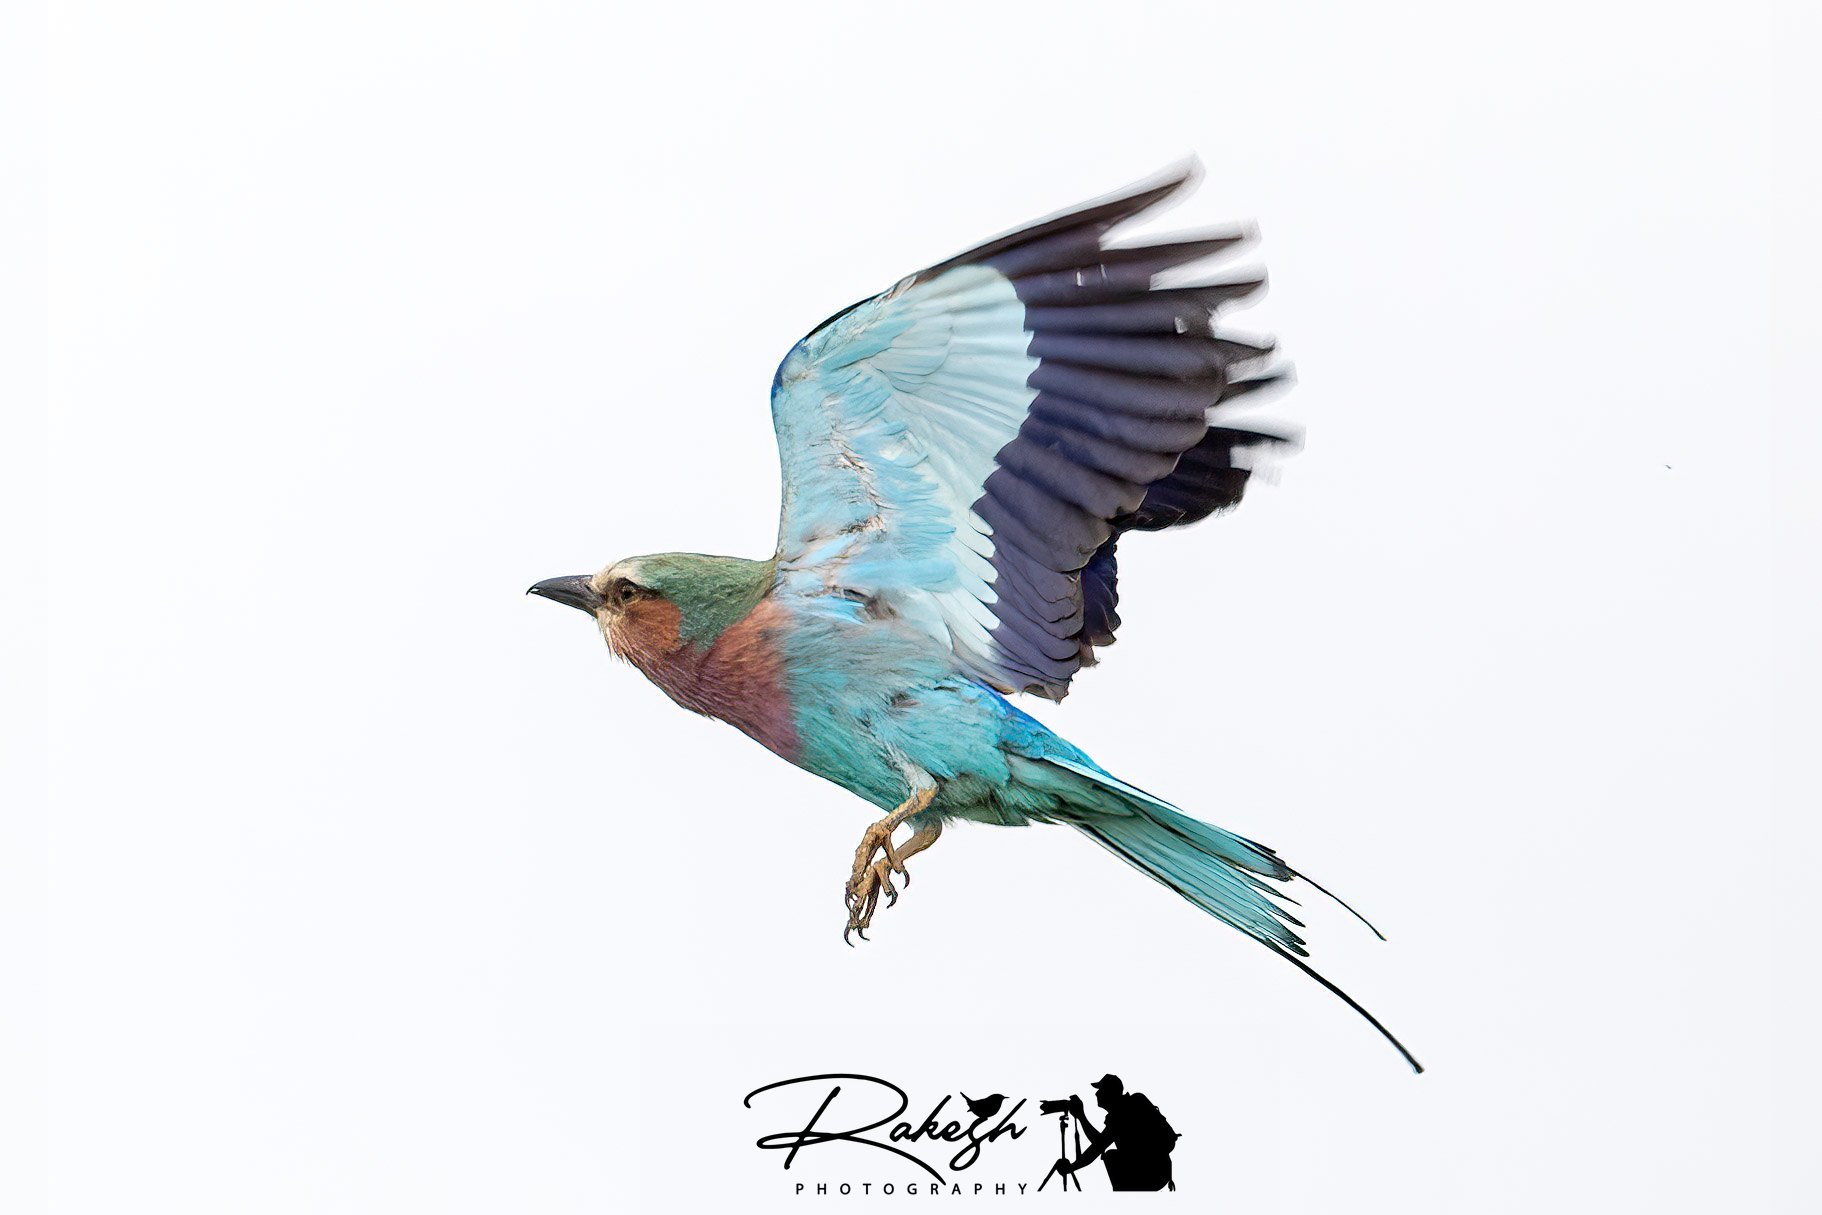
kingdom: Animalia
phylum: Chordata
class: Aves
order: Coraciiformes
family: Coraciidae
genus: Coracias
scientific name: Coracias caudatus
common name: Lilac-breasted roller
